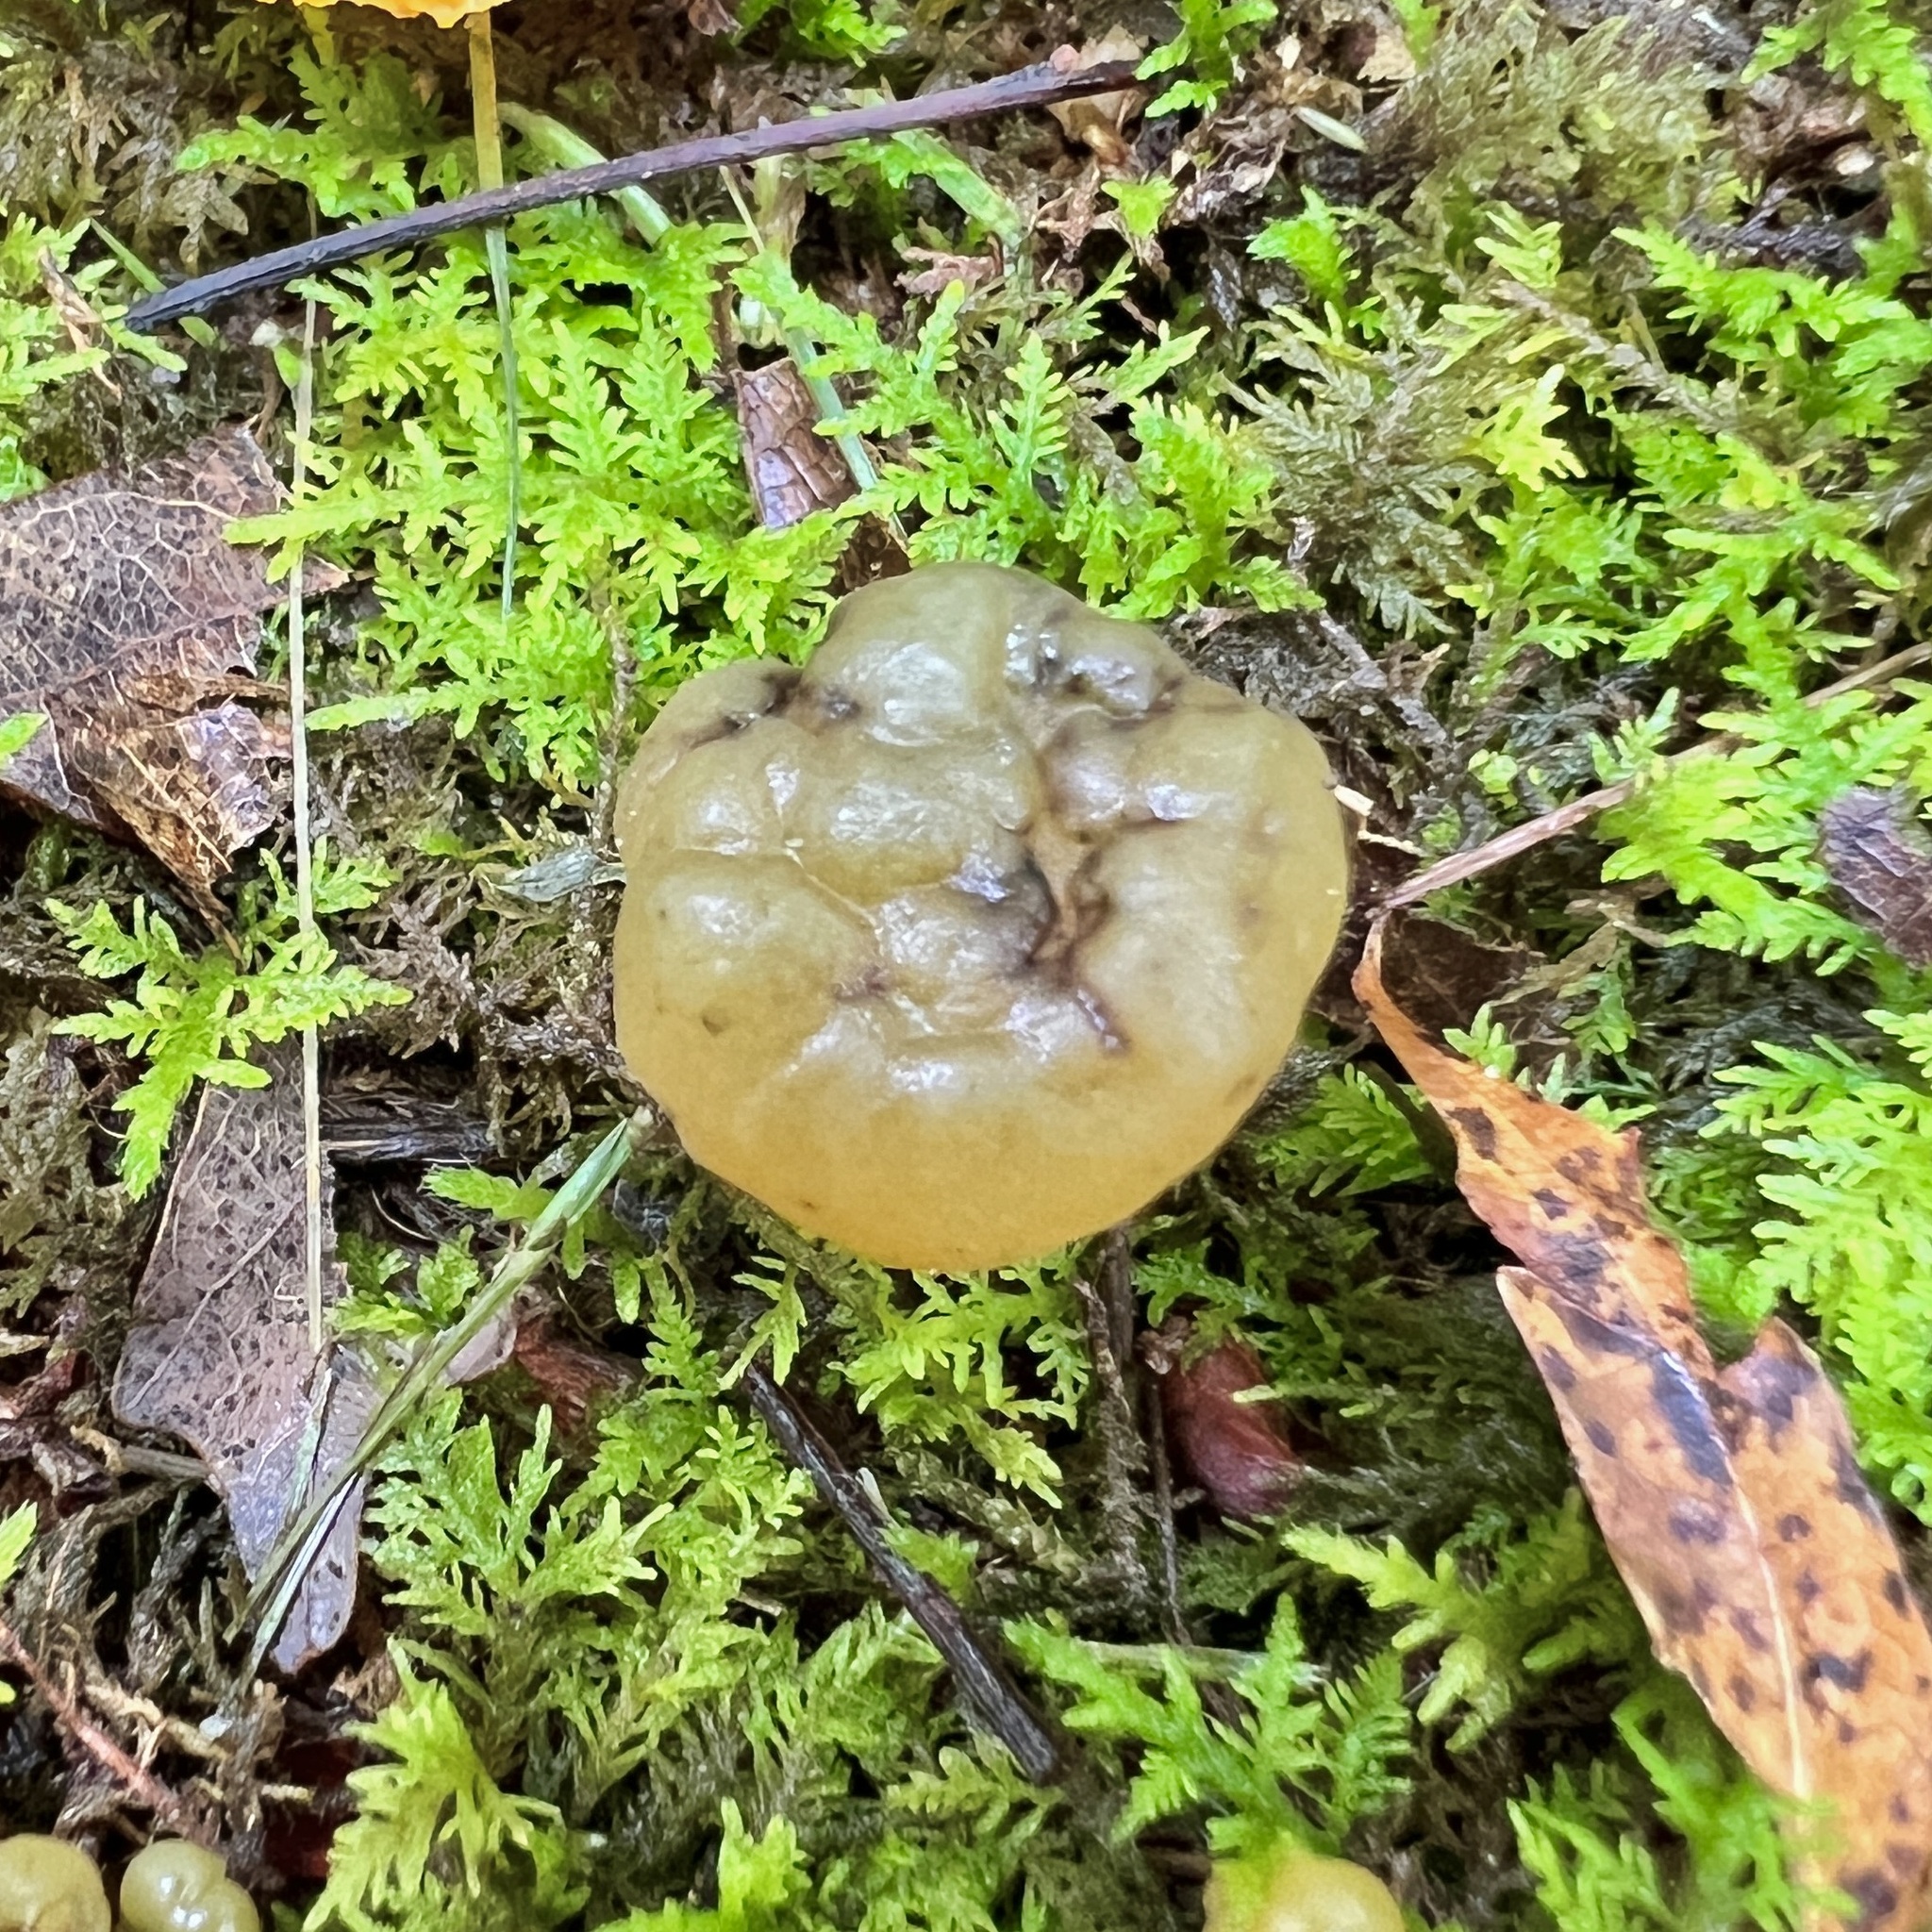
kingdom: Fungi
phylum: Ascomycota
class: Leotiomycetes
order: Leotiales
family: Leotiaceae
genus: Leotia
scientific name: Leotia lubrica
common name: Jellybaby
